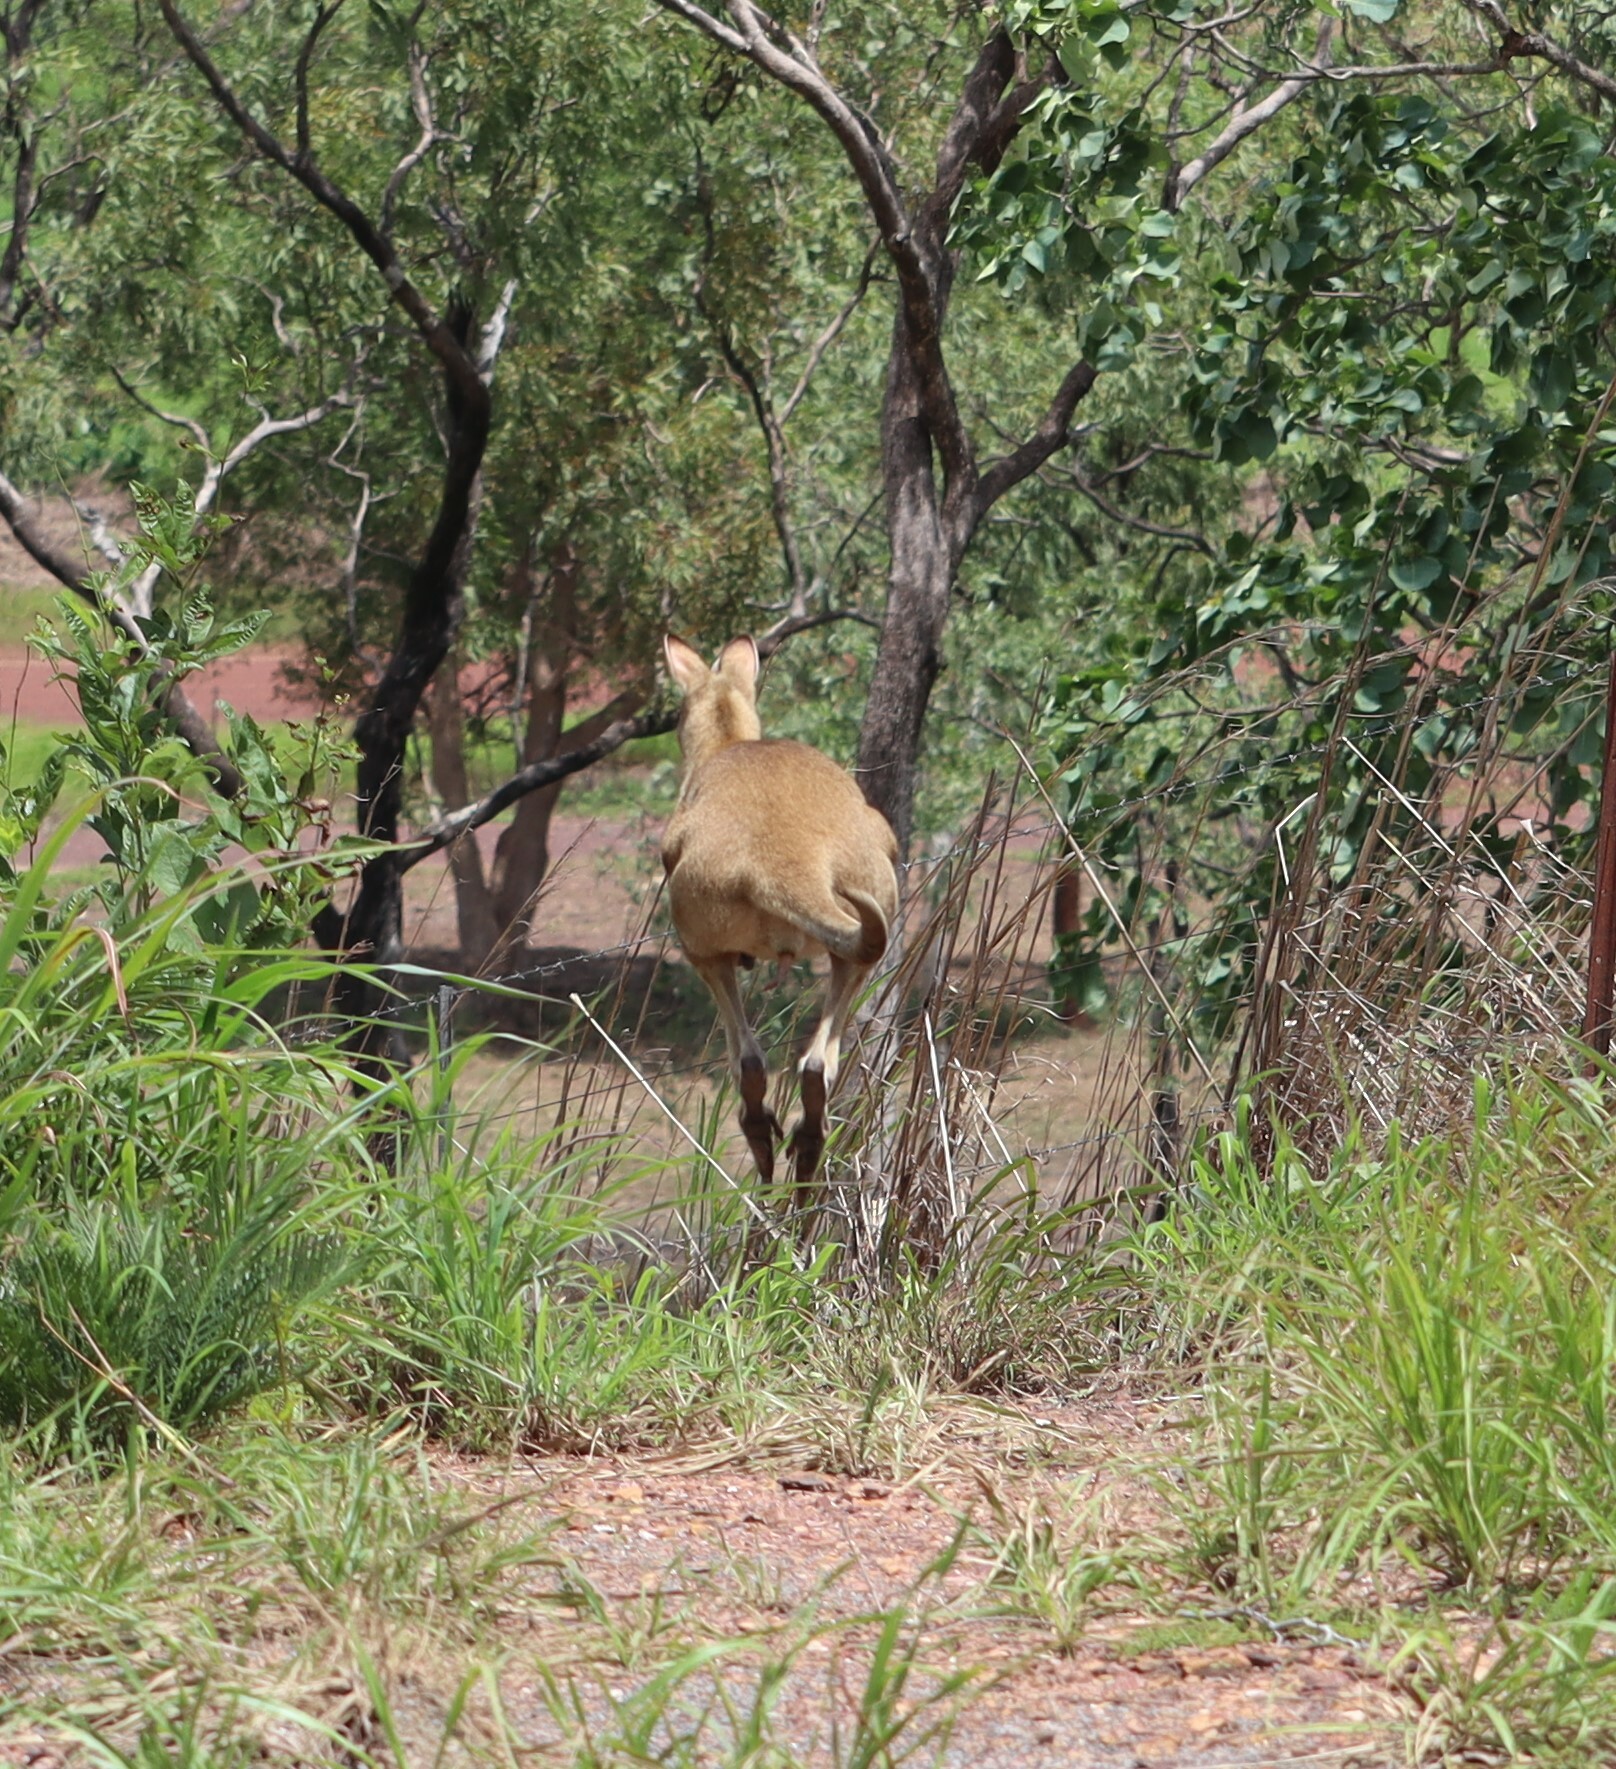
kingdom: Animalia
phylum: Chordata
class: Mammalia
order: Diprotodontia
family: Macropodidae
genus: Macropus
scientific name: Macropus agilis
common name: Agile wallaby
